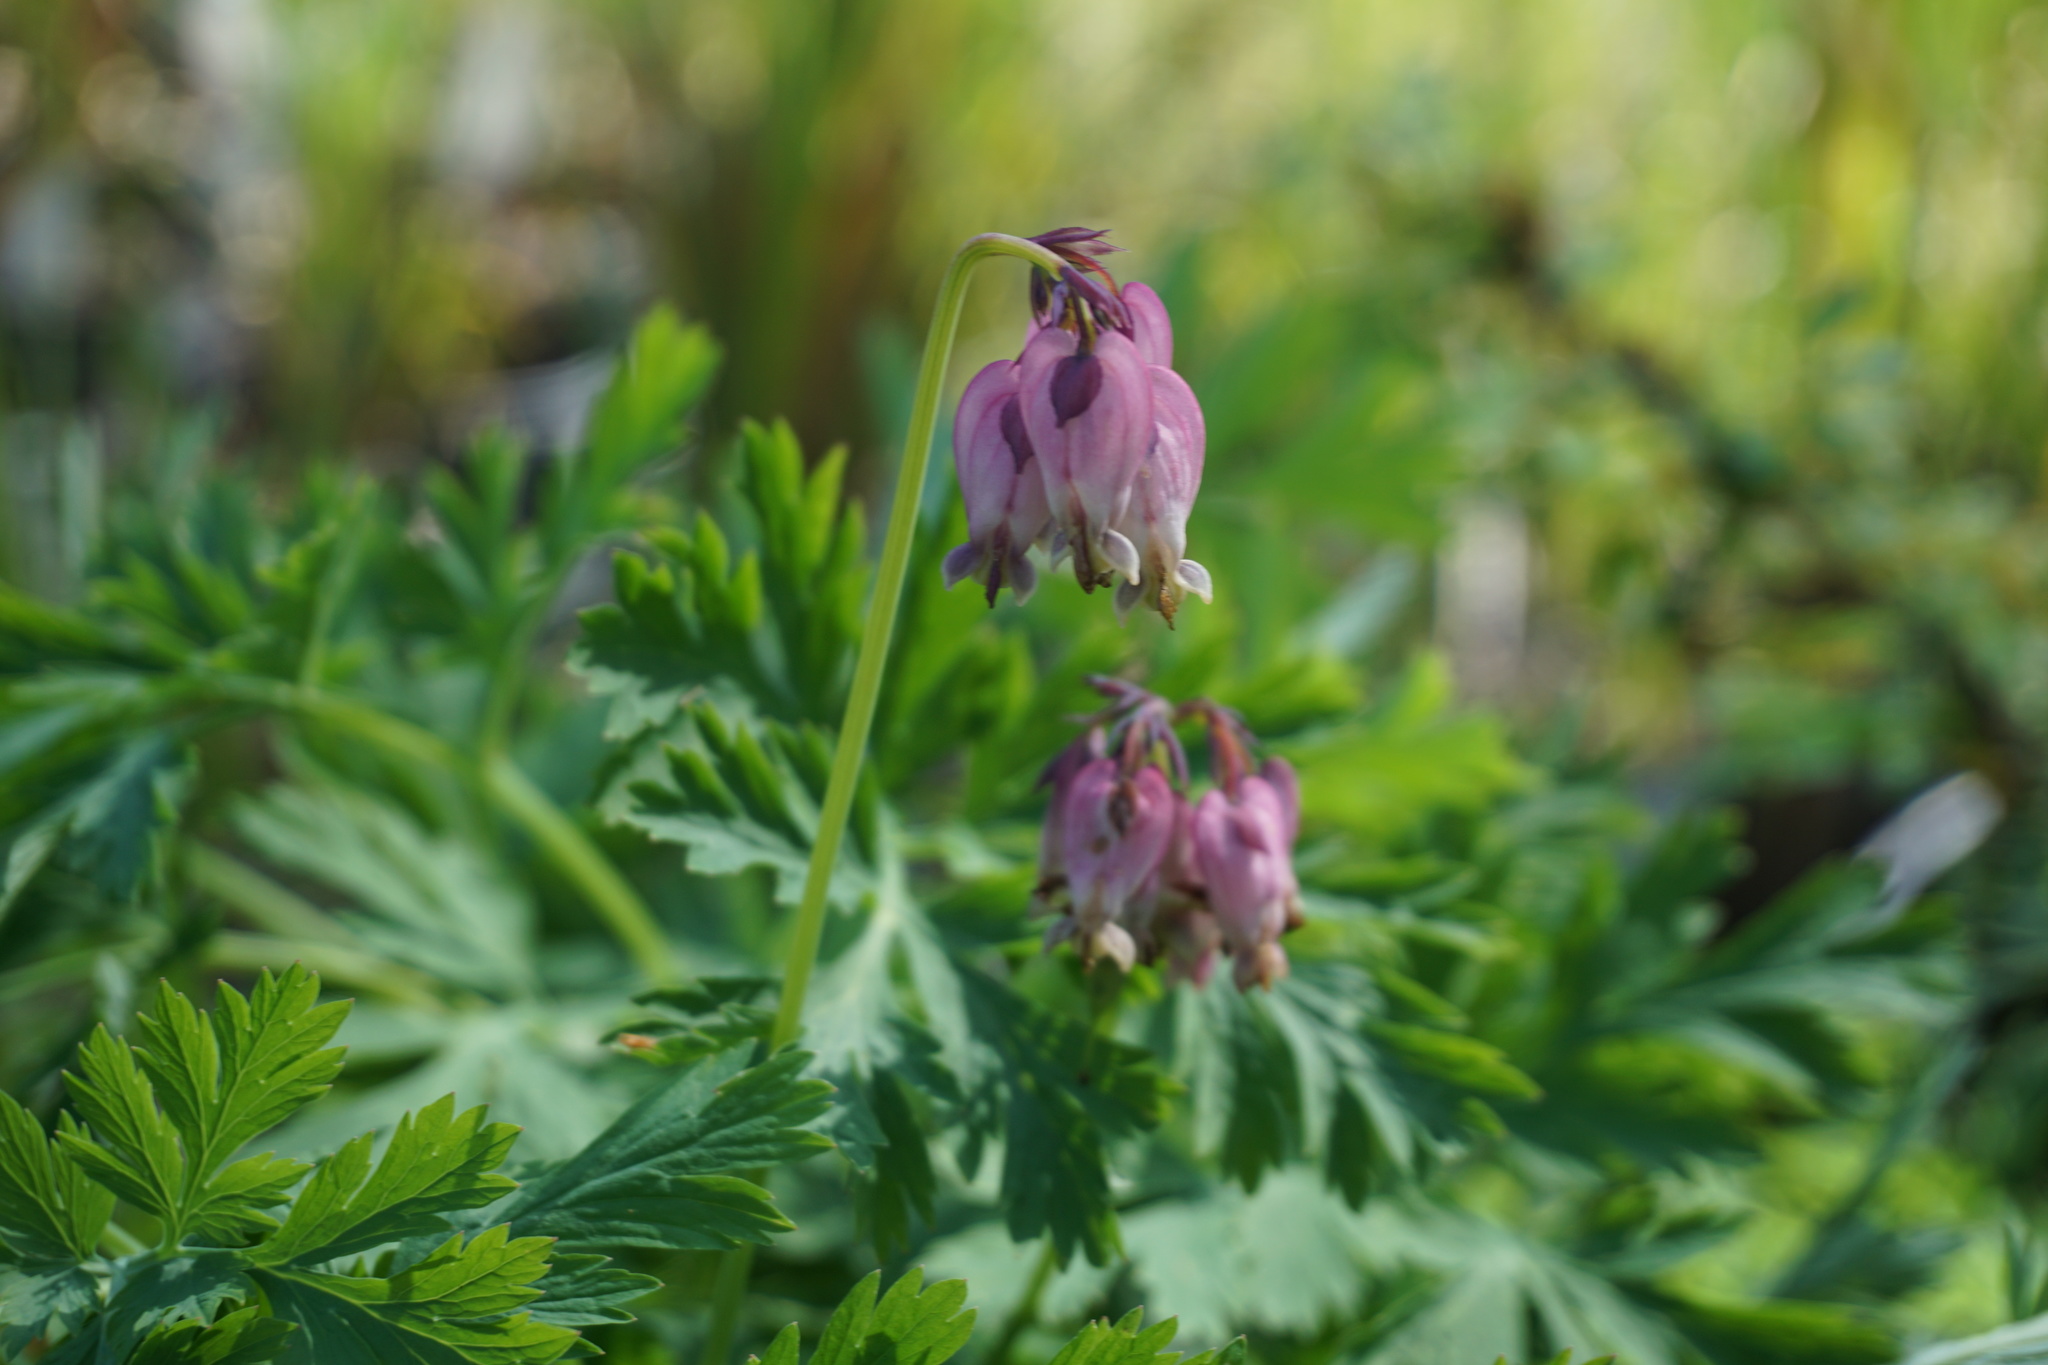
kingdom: Plantae
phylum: Tracheophyta
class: Magnoliopsida
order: Ranunculales
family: Papaveraceae
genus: Dicentra
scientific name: Dicentra formosa
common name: Bleeding-heart
